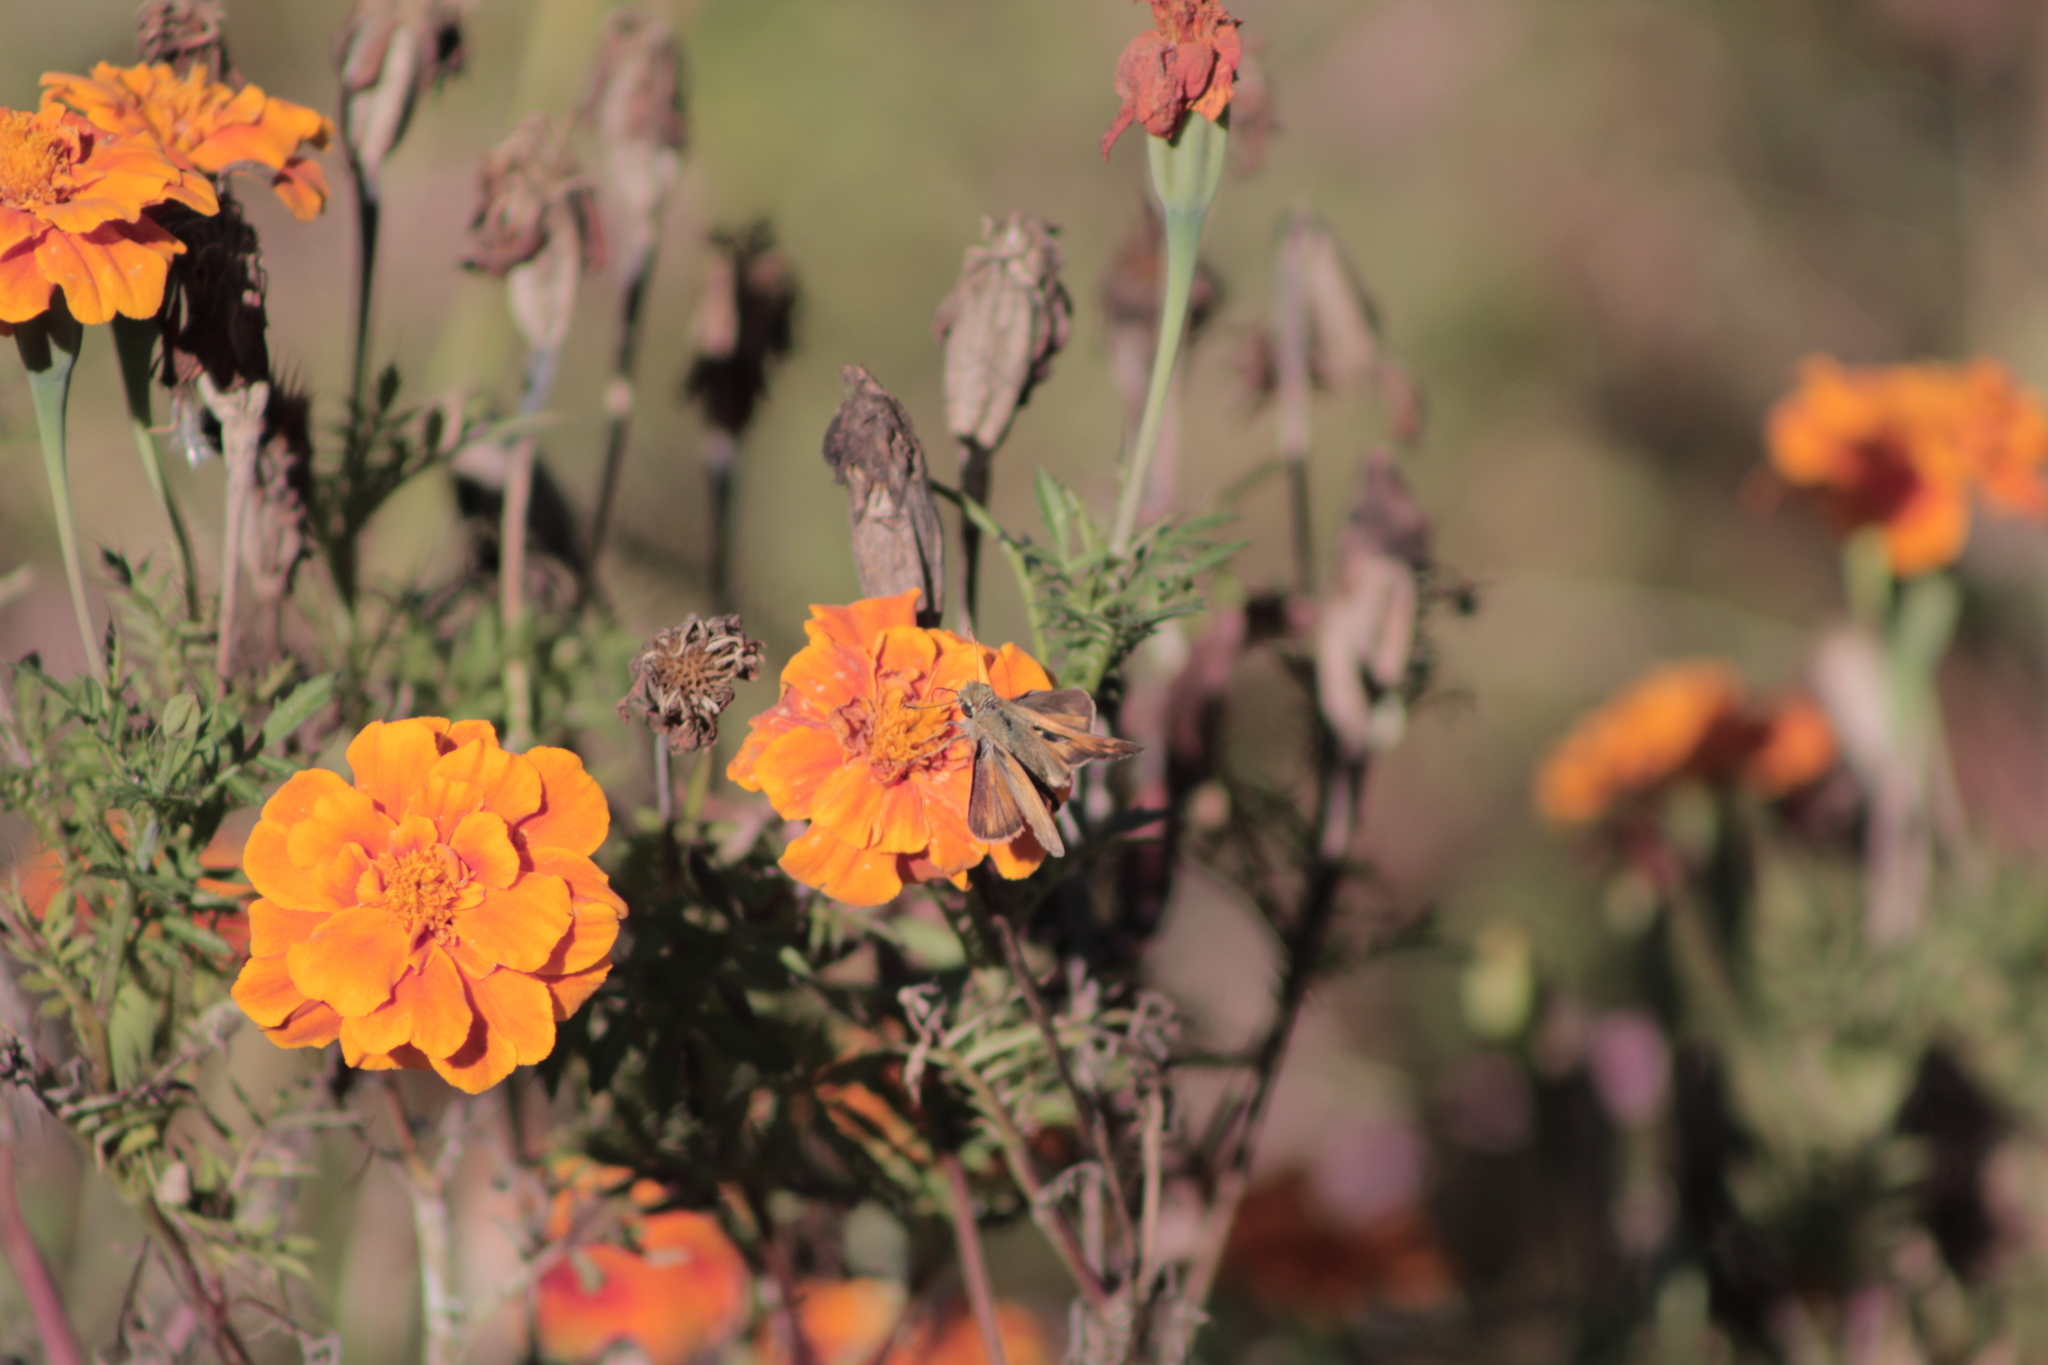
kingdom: Animalia
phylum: Arthropoda
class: Insecta
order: Lepidoptera
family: Hesperiidae
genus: Atalopedes
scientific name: Atalopedes
